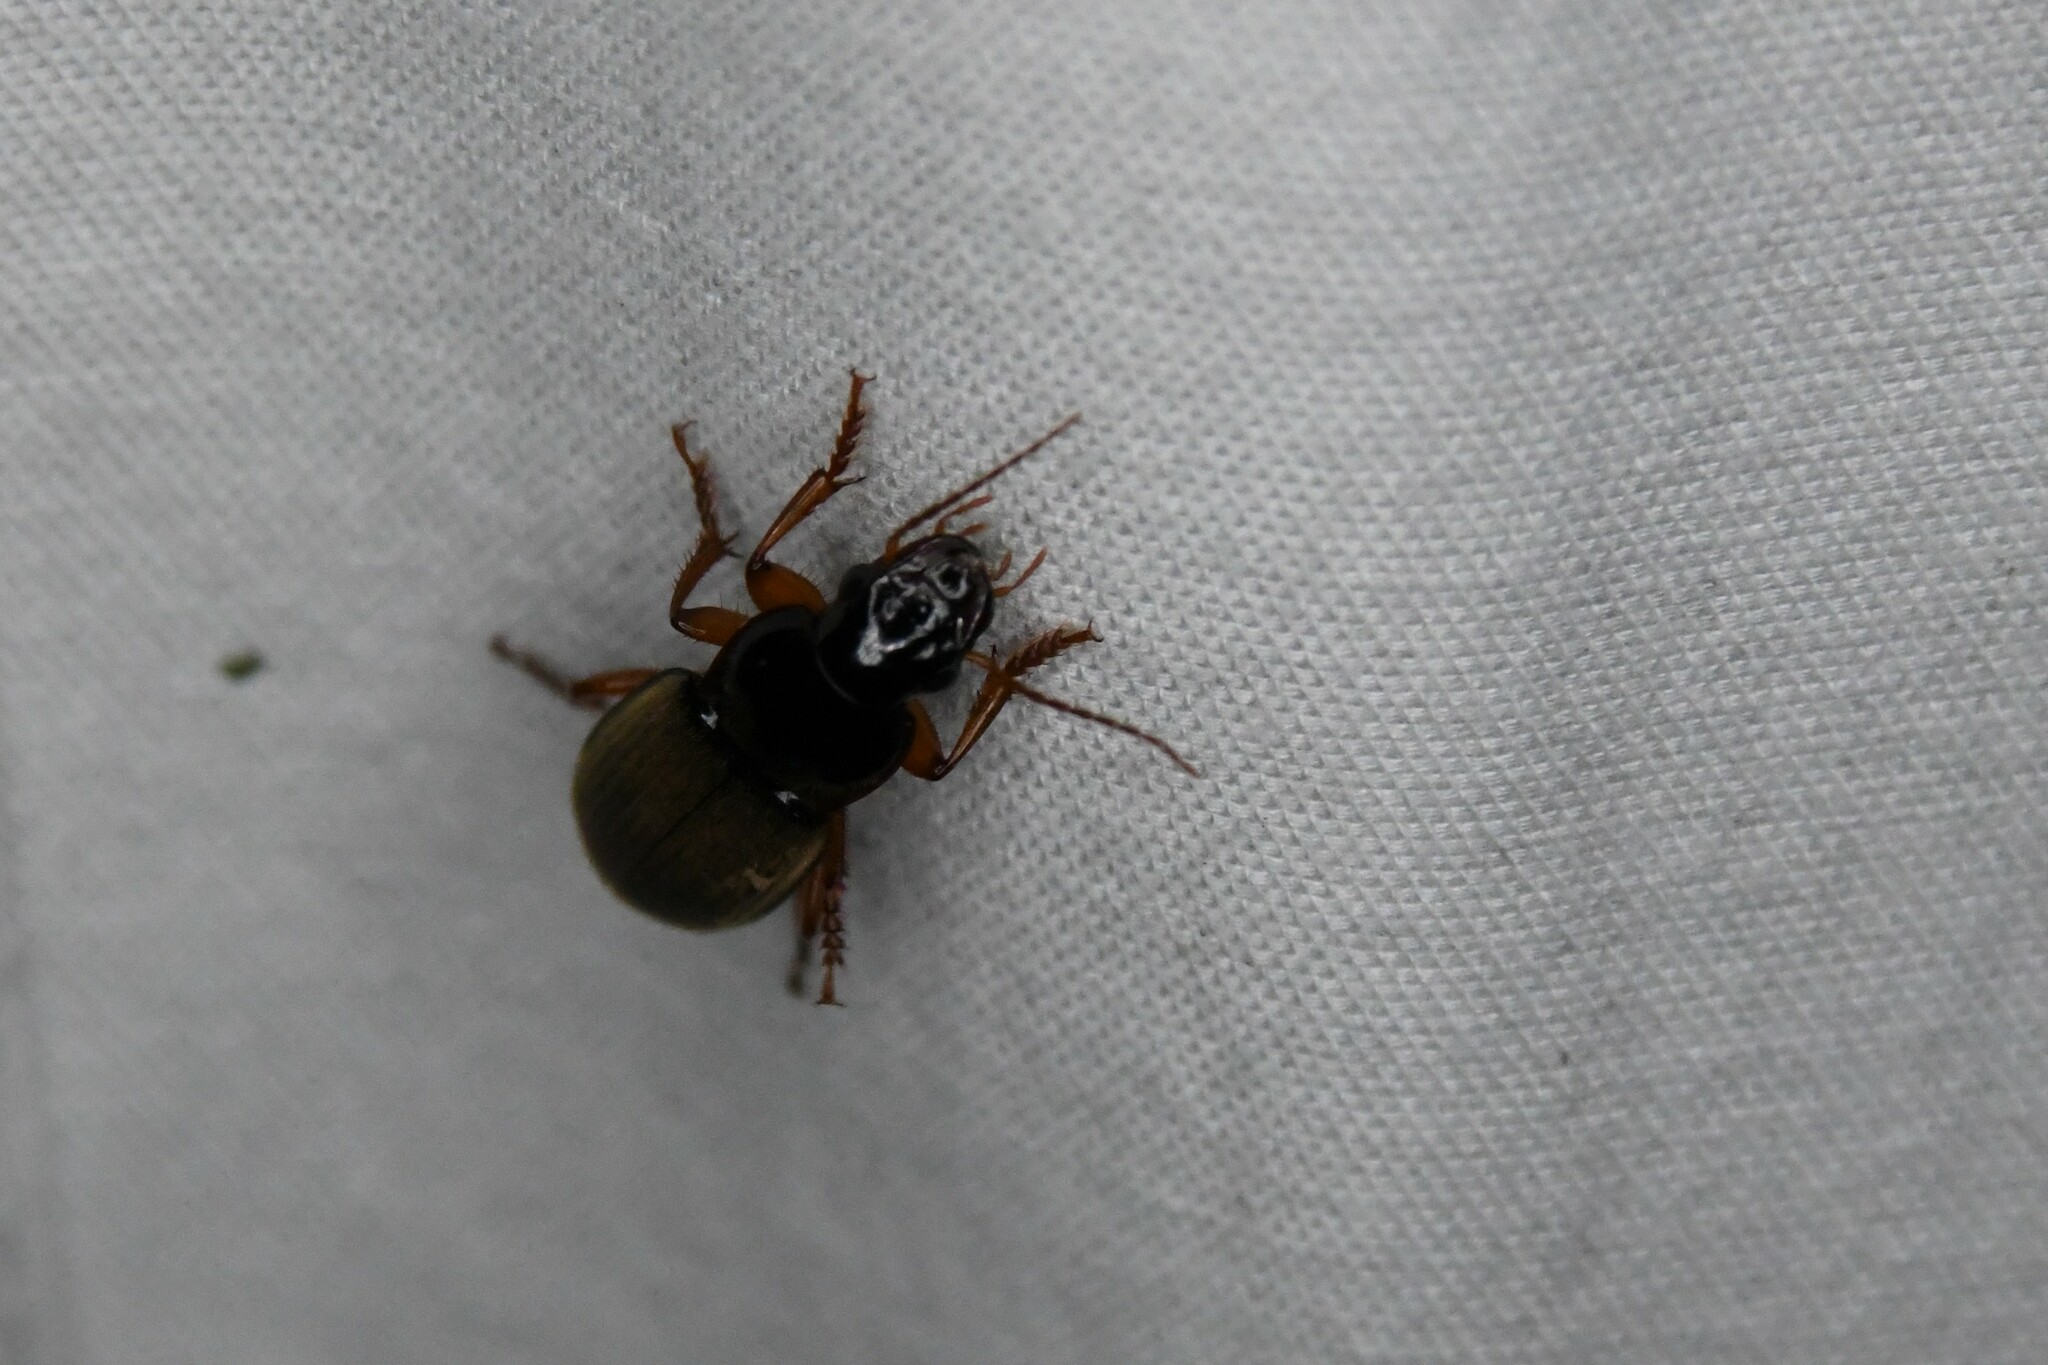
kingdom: Animalia
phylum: Arthropoda
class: Insecta
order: Coleoptera
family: Carabidae
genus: Harpalus
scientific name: Harpalus rufipes
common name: Strawberry harp ground beetle
